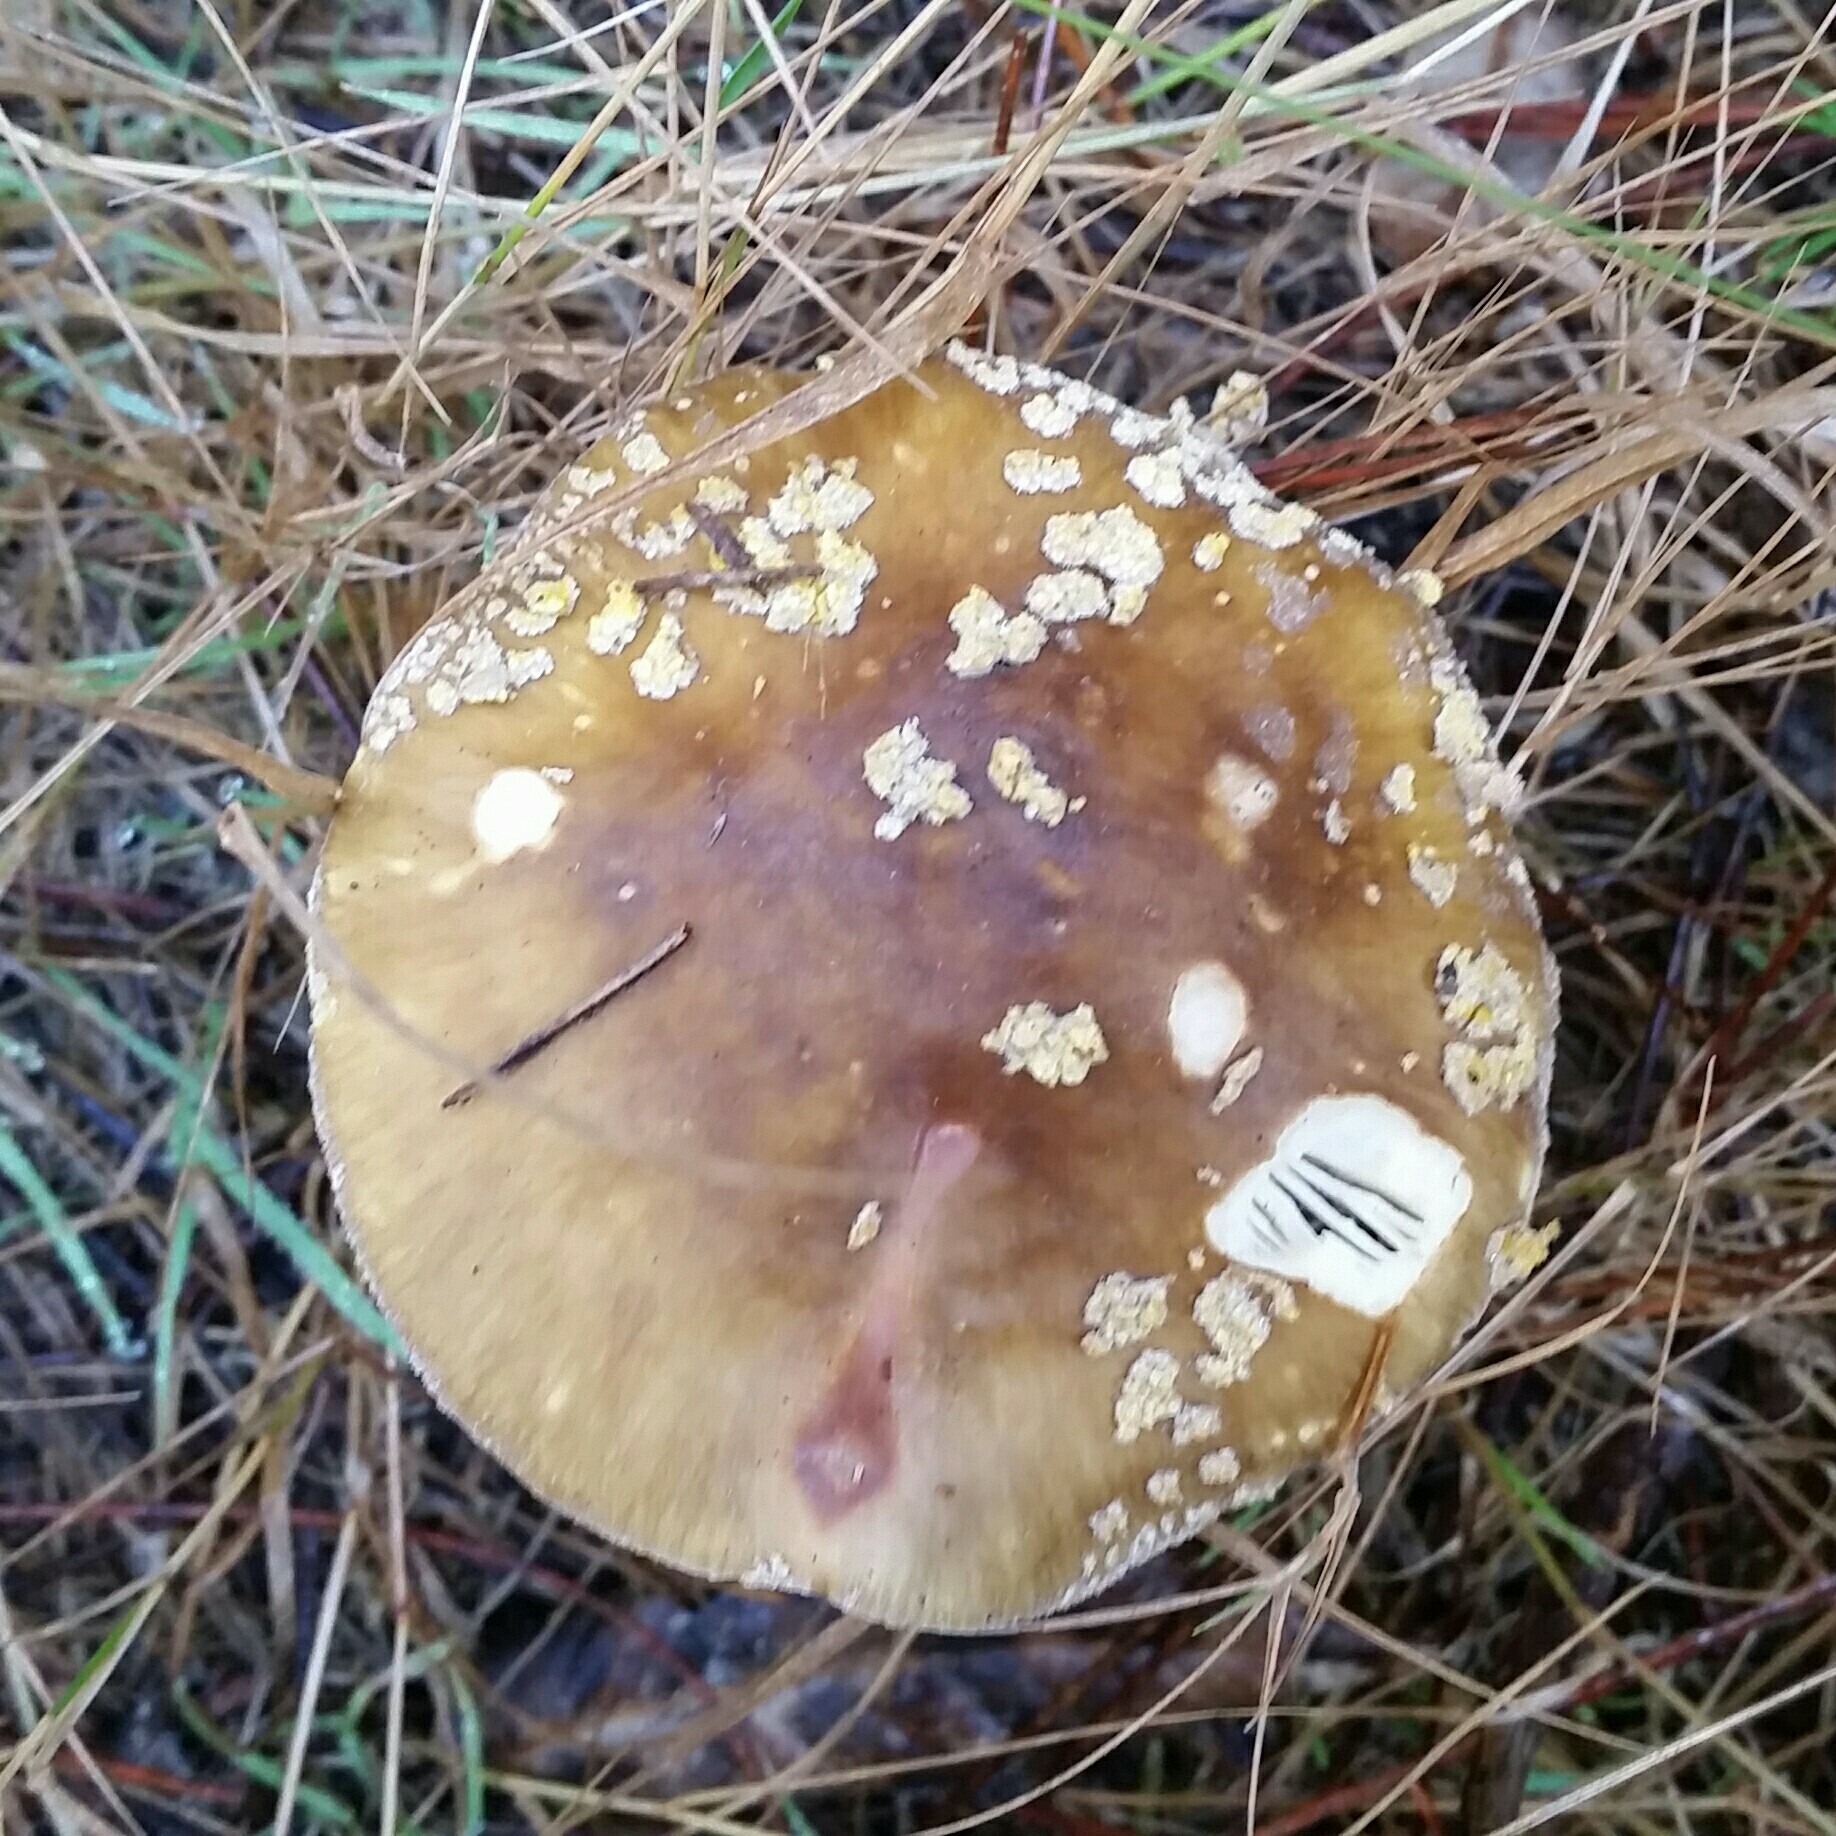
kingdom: Fungi
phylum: Basidiomycota
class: Agaricomycetes
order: Agaricales
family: Amanitaceae
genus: Amanita
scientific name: Amanita augusta
